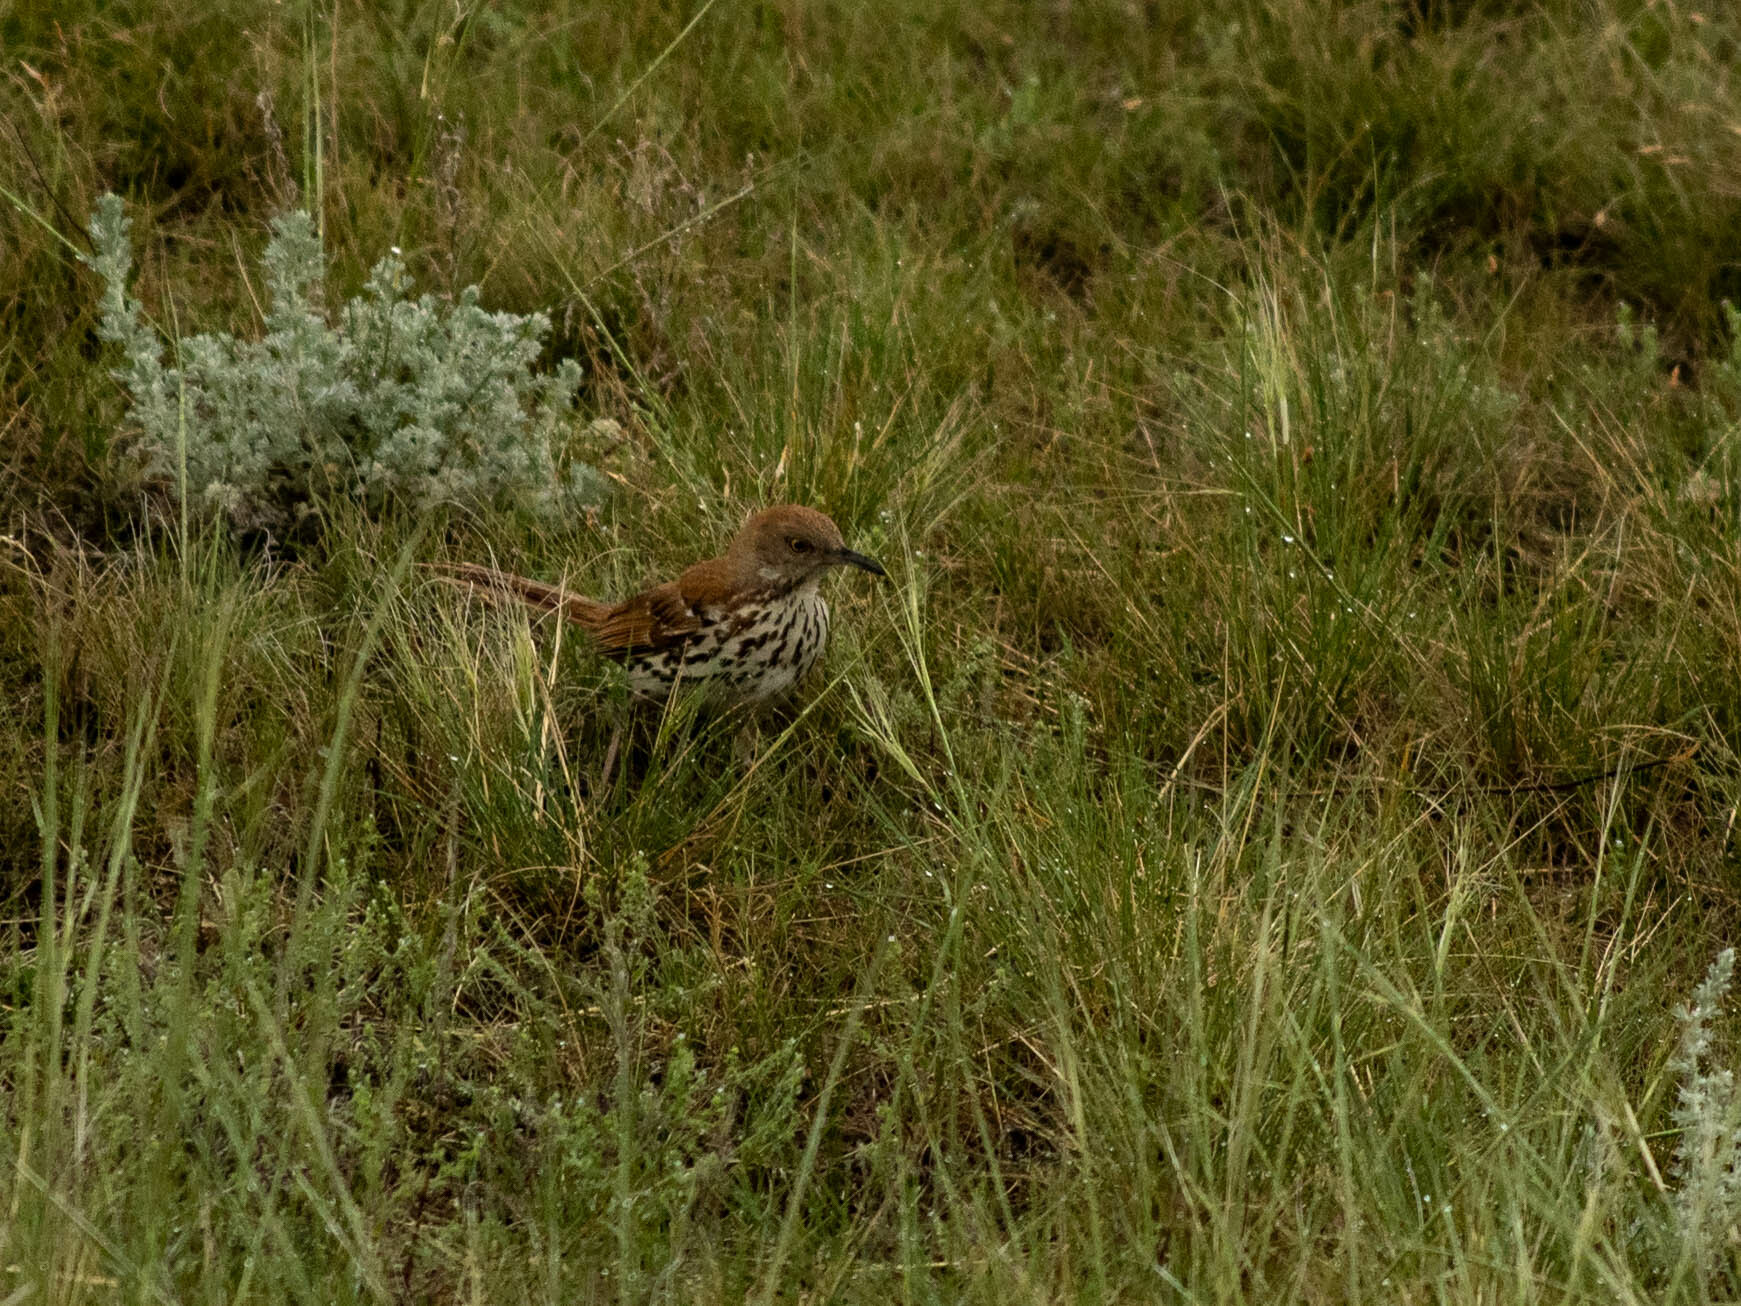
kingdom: Animalia
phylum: Chordata
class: Aves
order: Passeriformes
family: Mimidae
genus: Toxostoma
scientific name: Toxostoma rufum
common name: Brown thrasher
